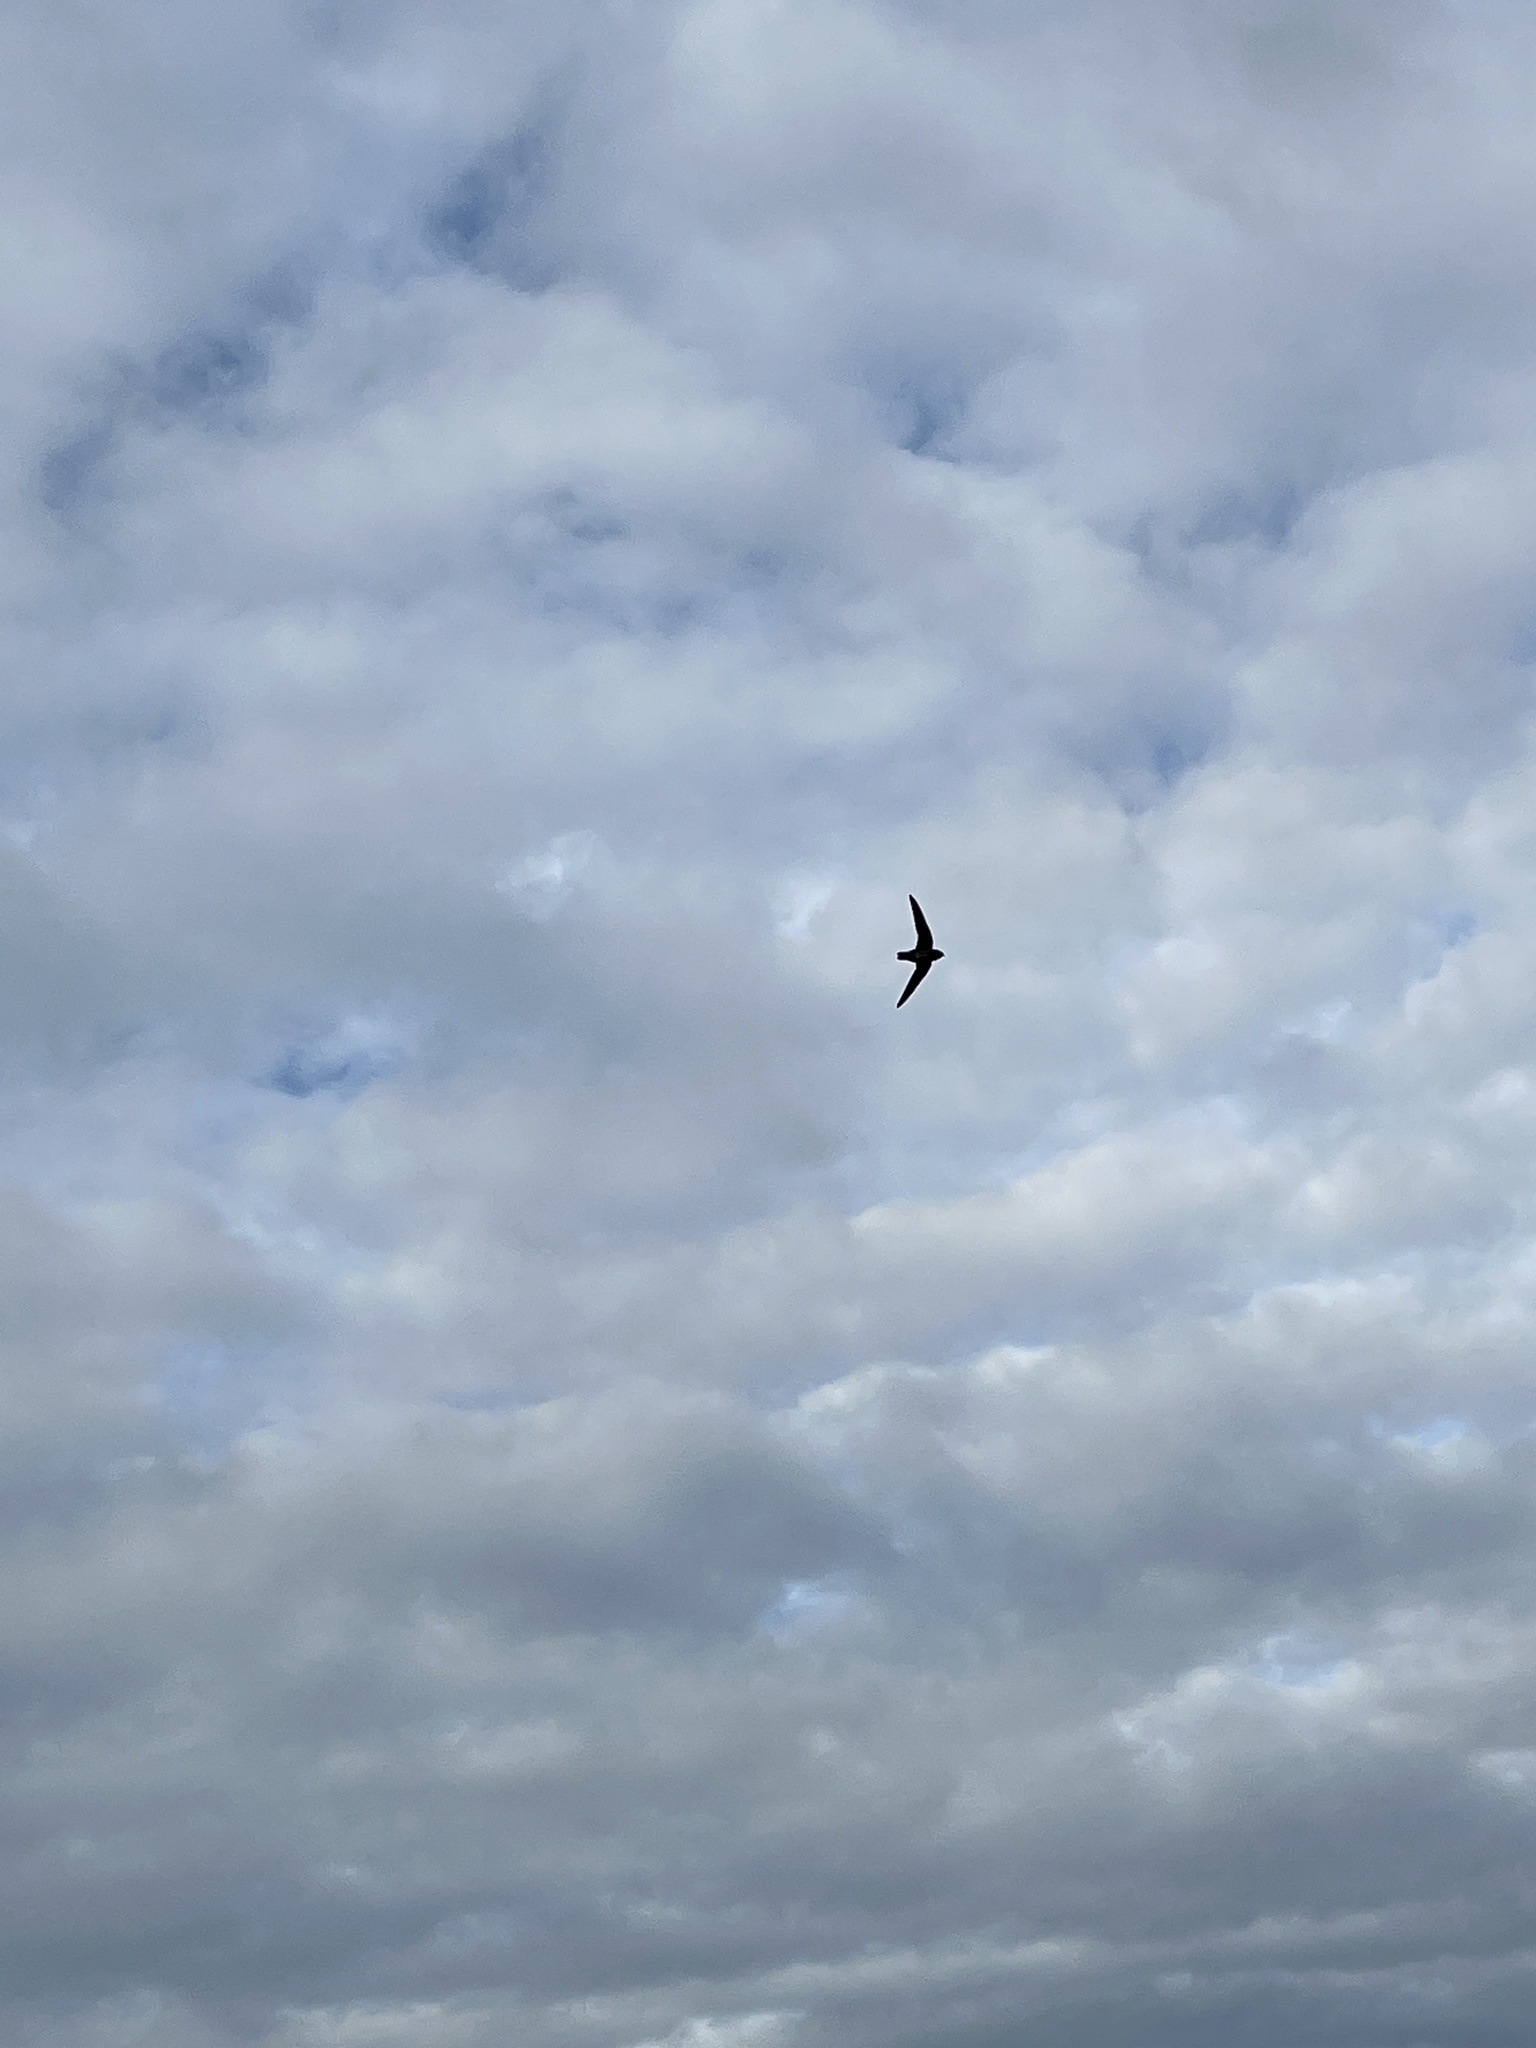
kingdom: Animalia
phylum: Chordata
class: Aves
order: Apodiformes
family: Apodidae
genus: Cypseloides
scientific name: Cypseloides niger
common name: Black swift
